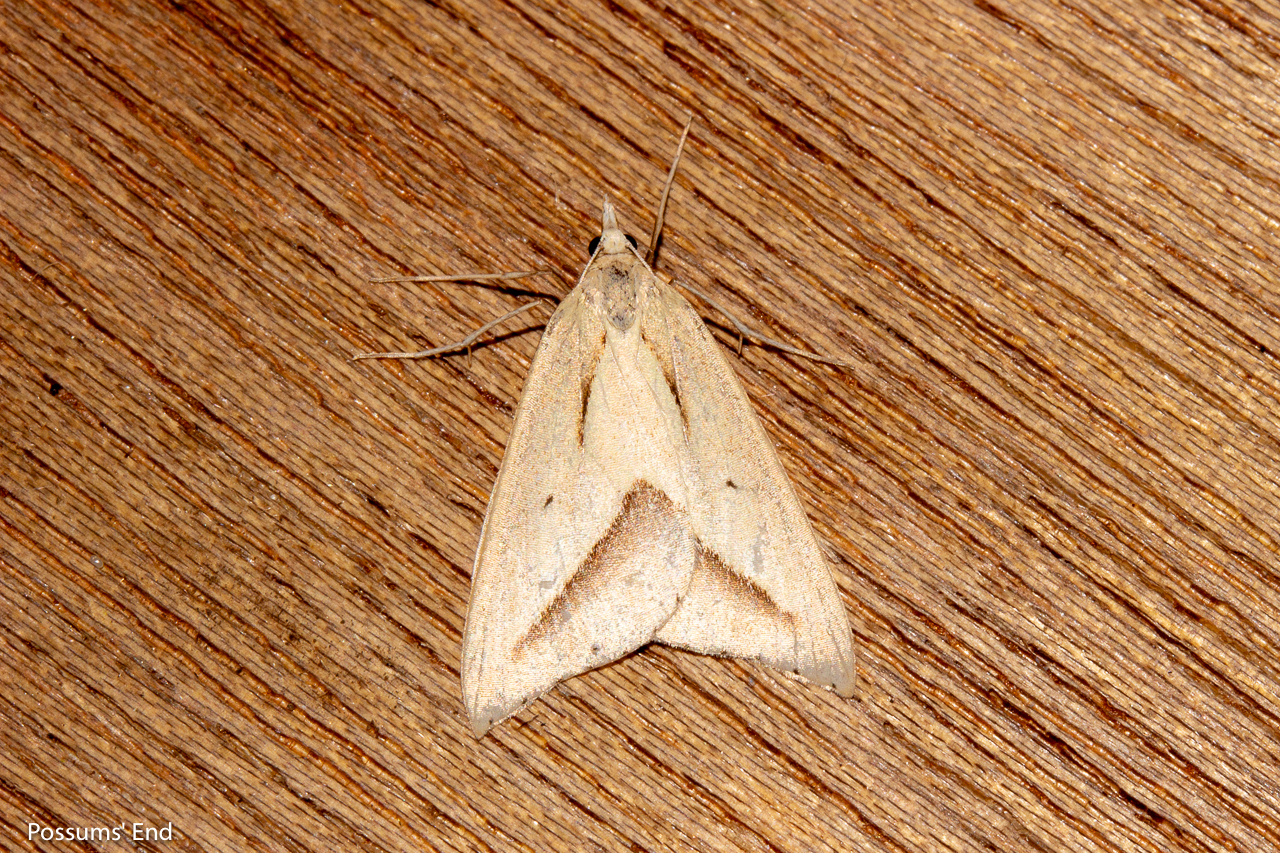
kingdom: Animalia
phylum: Arthropoda
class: Insecta
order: Lepidoptera
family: Geometridae
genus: Samana
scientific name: Samana acutata
